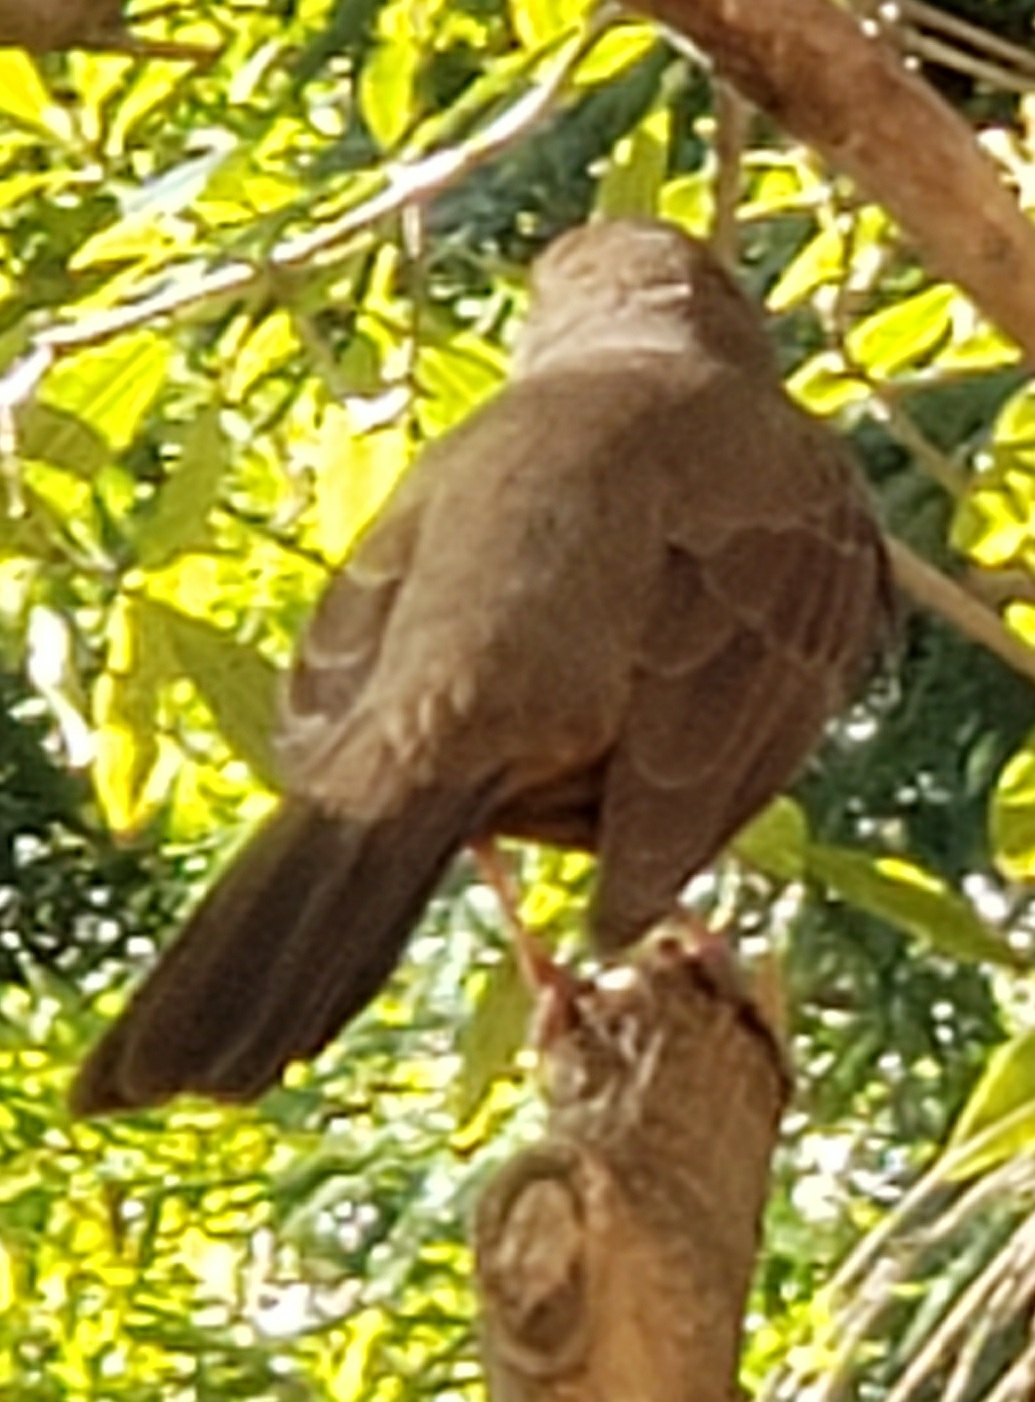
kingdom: Animalia
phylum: Chordata
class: Aves
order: Passeriformes
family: Passerellidae
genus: Melozone
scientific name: Melozone crissalis
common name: California towhee
